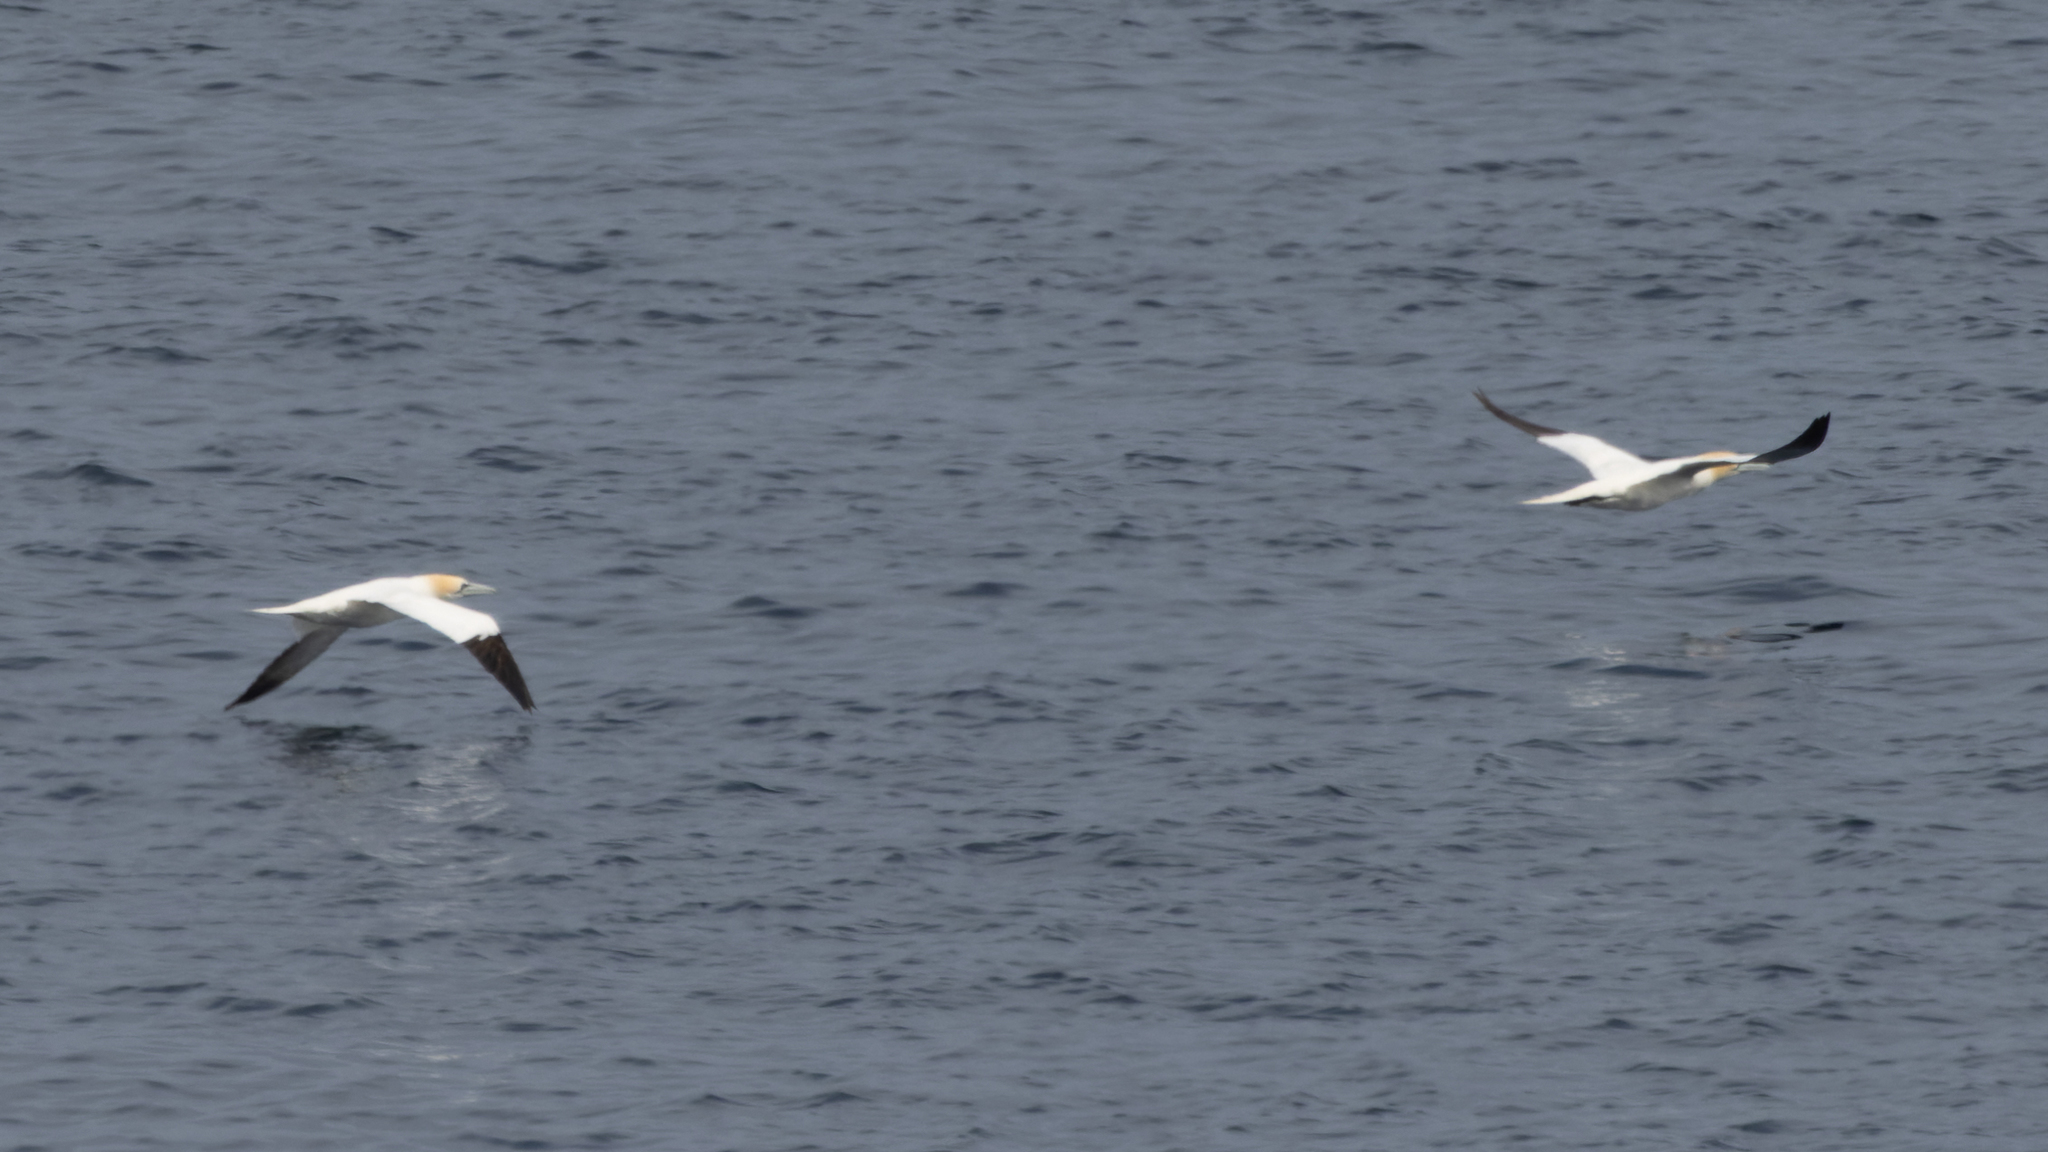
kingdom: Animalia
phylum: Chordata
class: Aves
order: Suliformes
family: Sulidae
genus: Morus
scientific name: Morus bassanus
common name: Northern gannet
